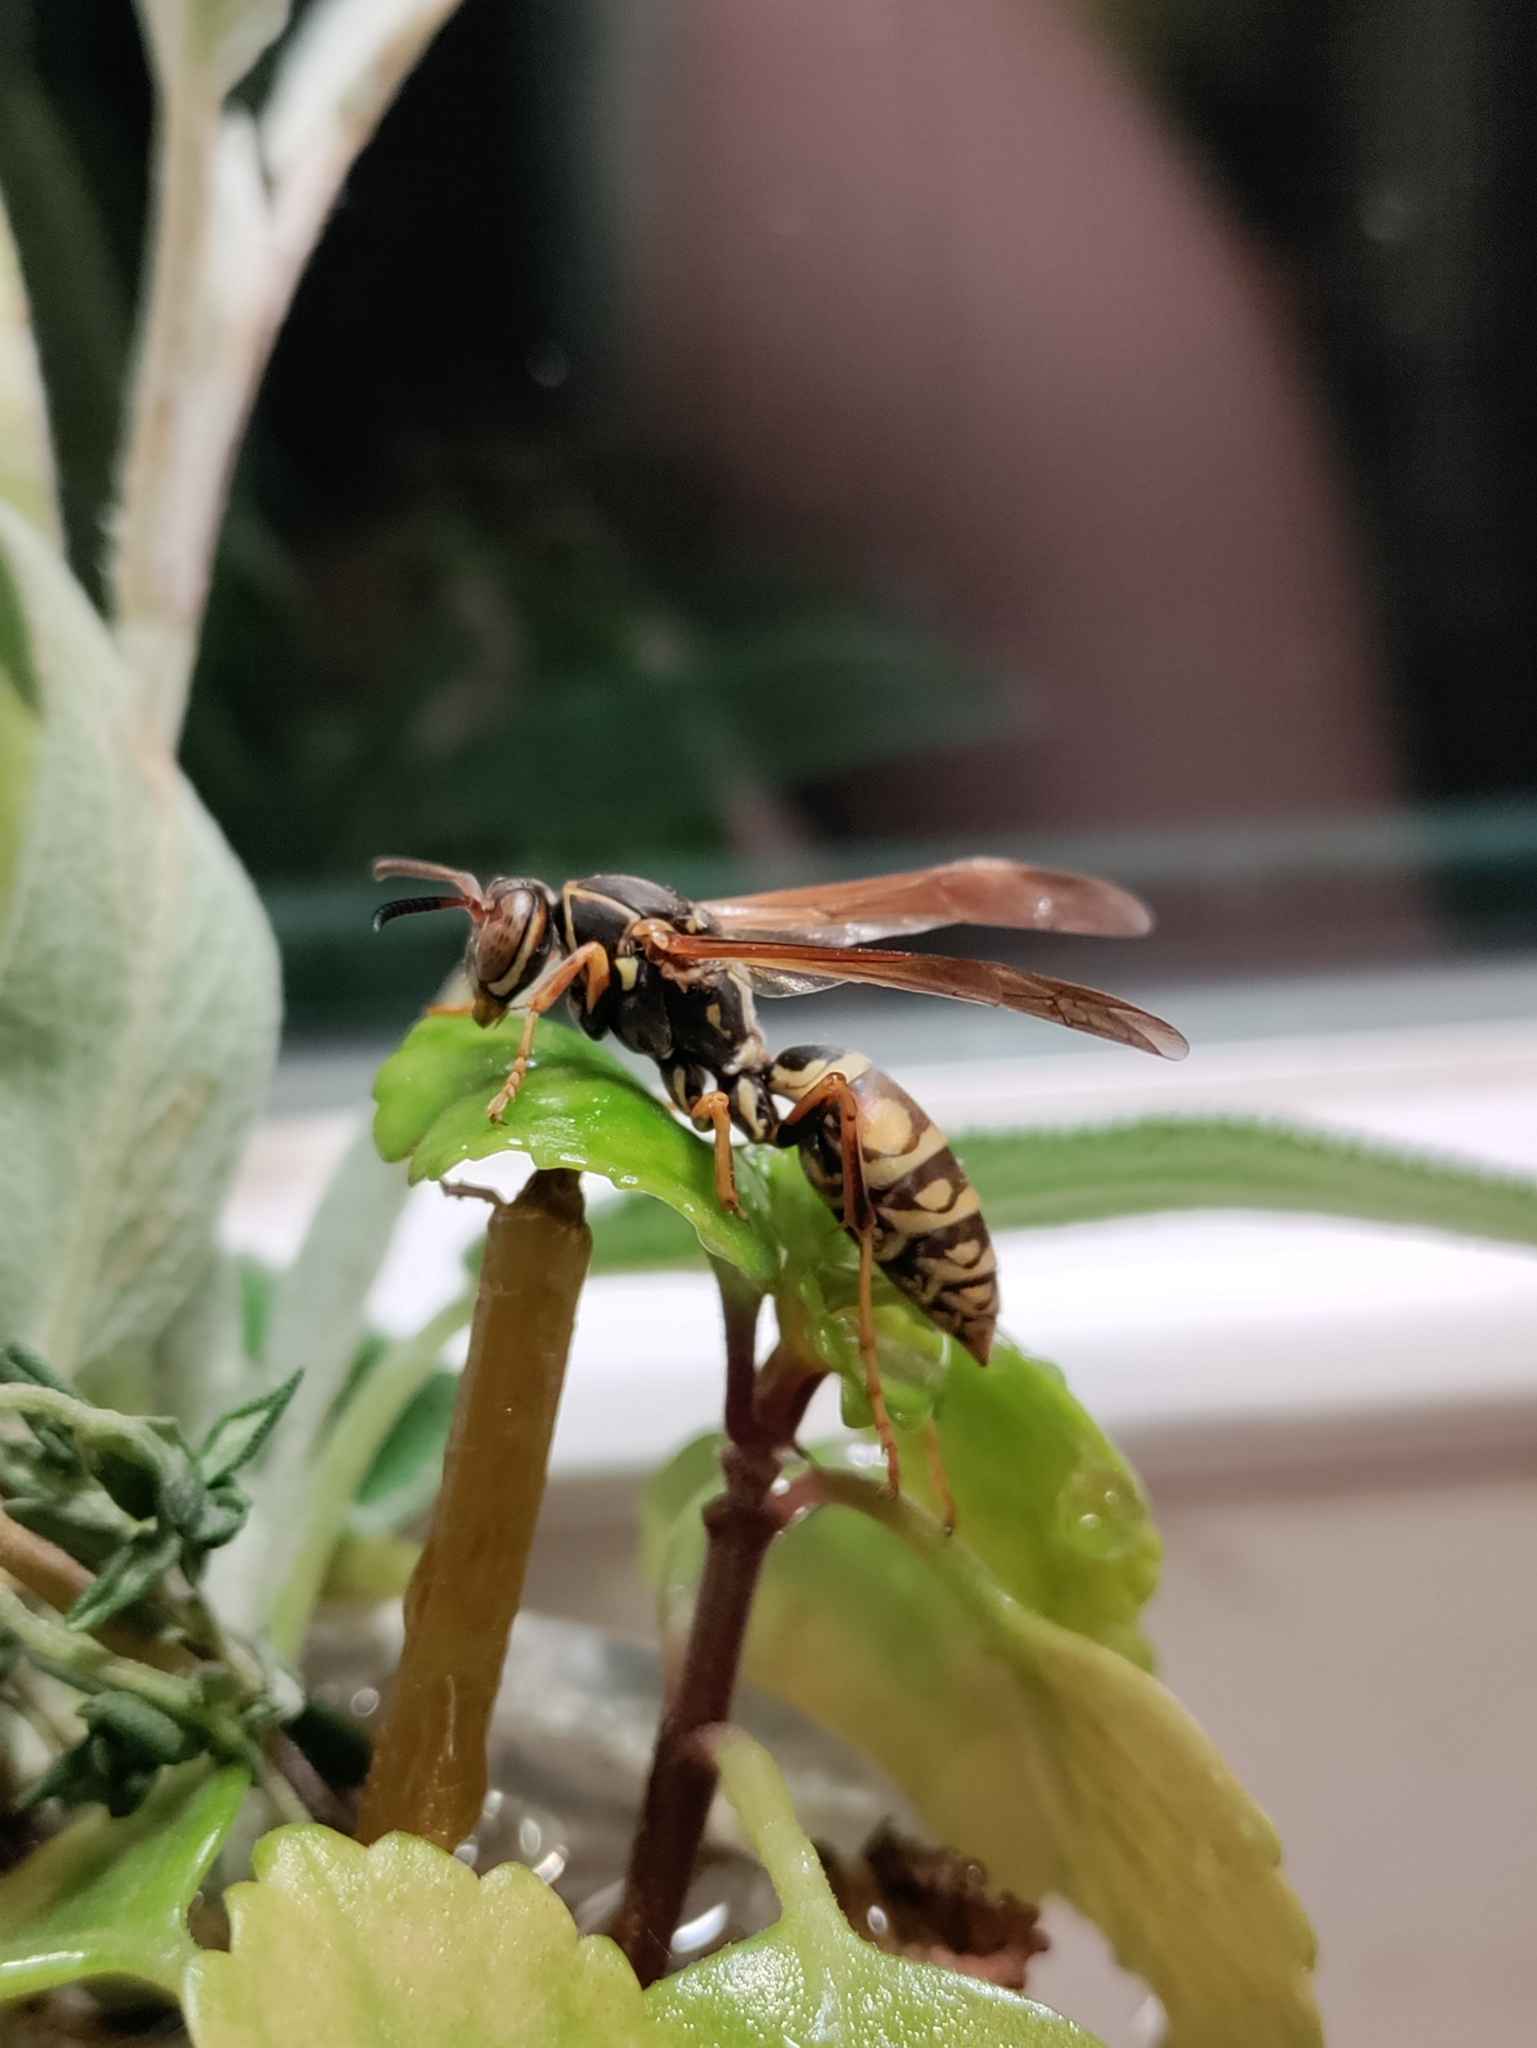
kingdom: Animalia
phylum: Arthropoda
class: Insecta
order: Hymenoptera
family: Eumenidae
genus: Polistes
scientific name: Polistes fuscatus
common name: Dark paper wasp
